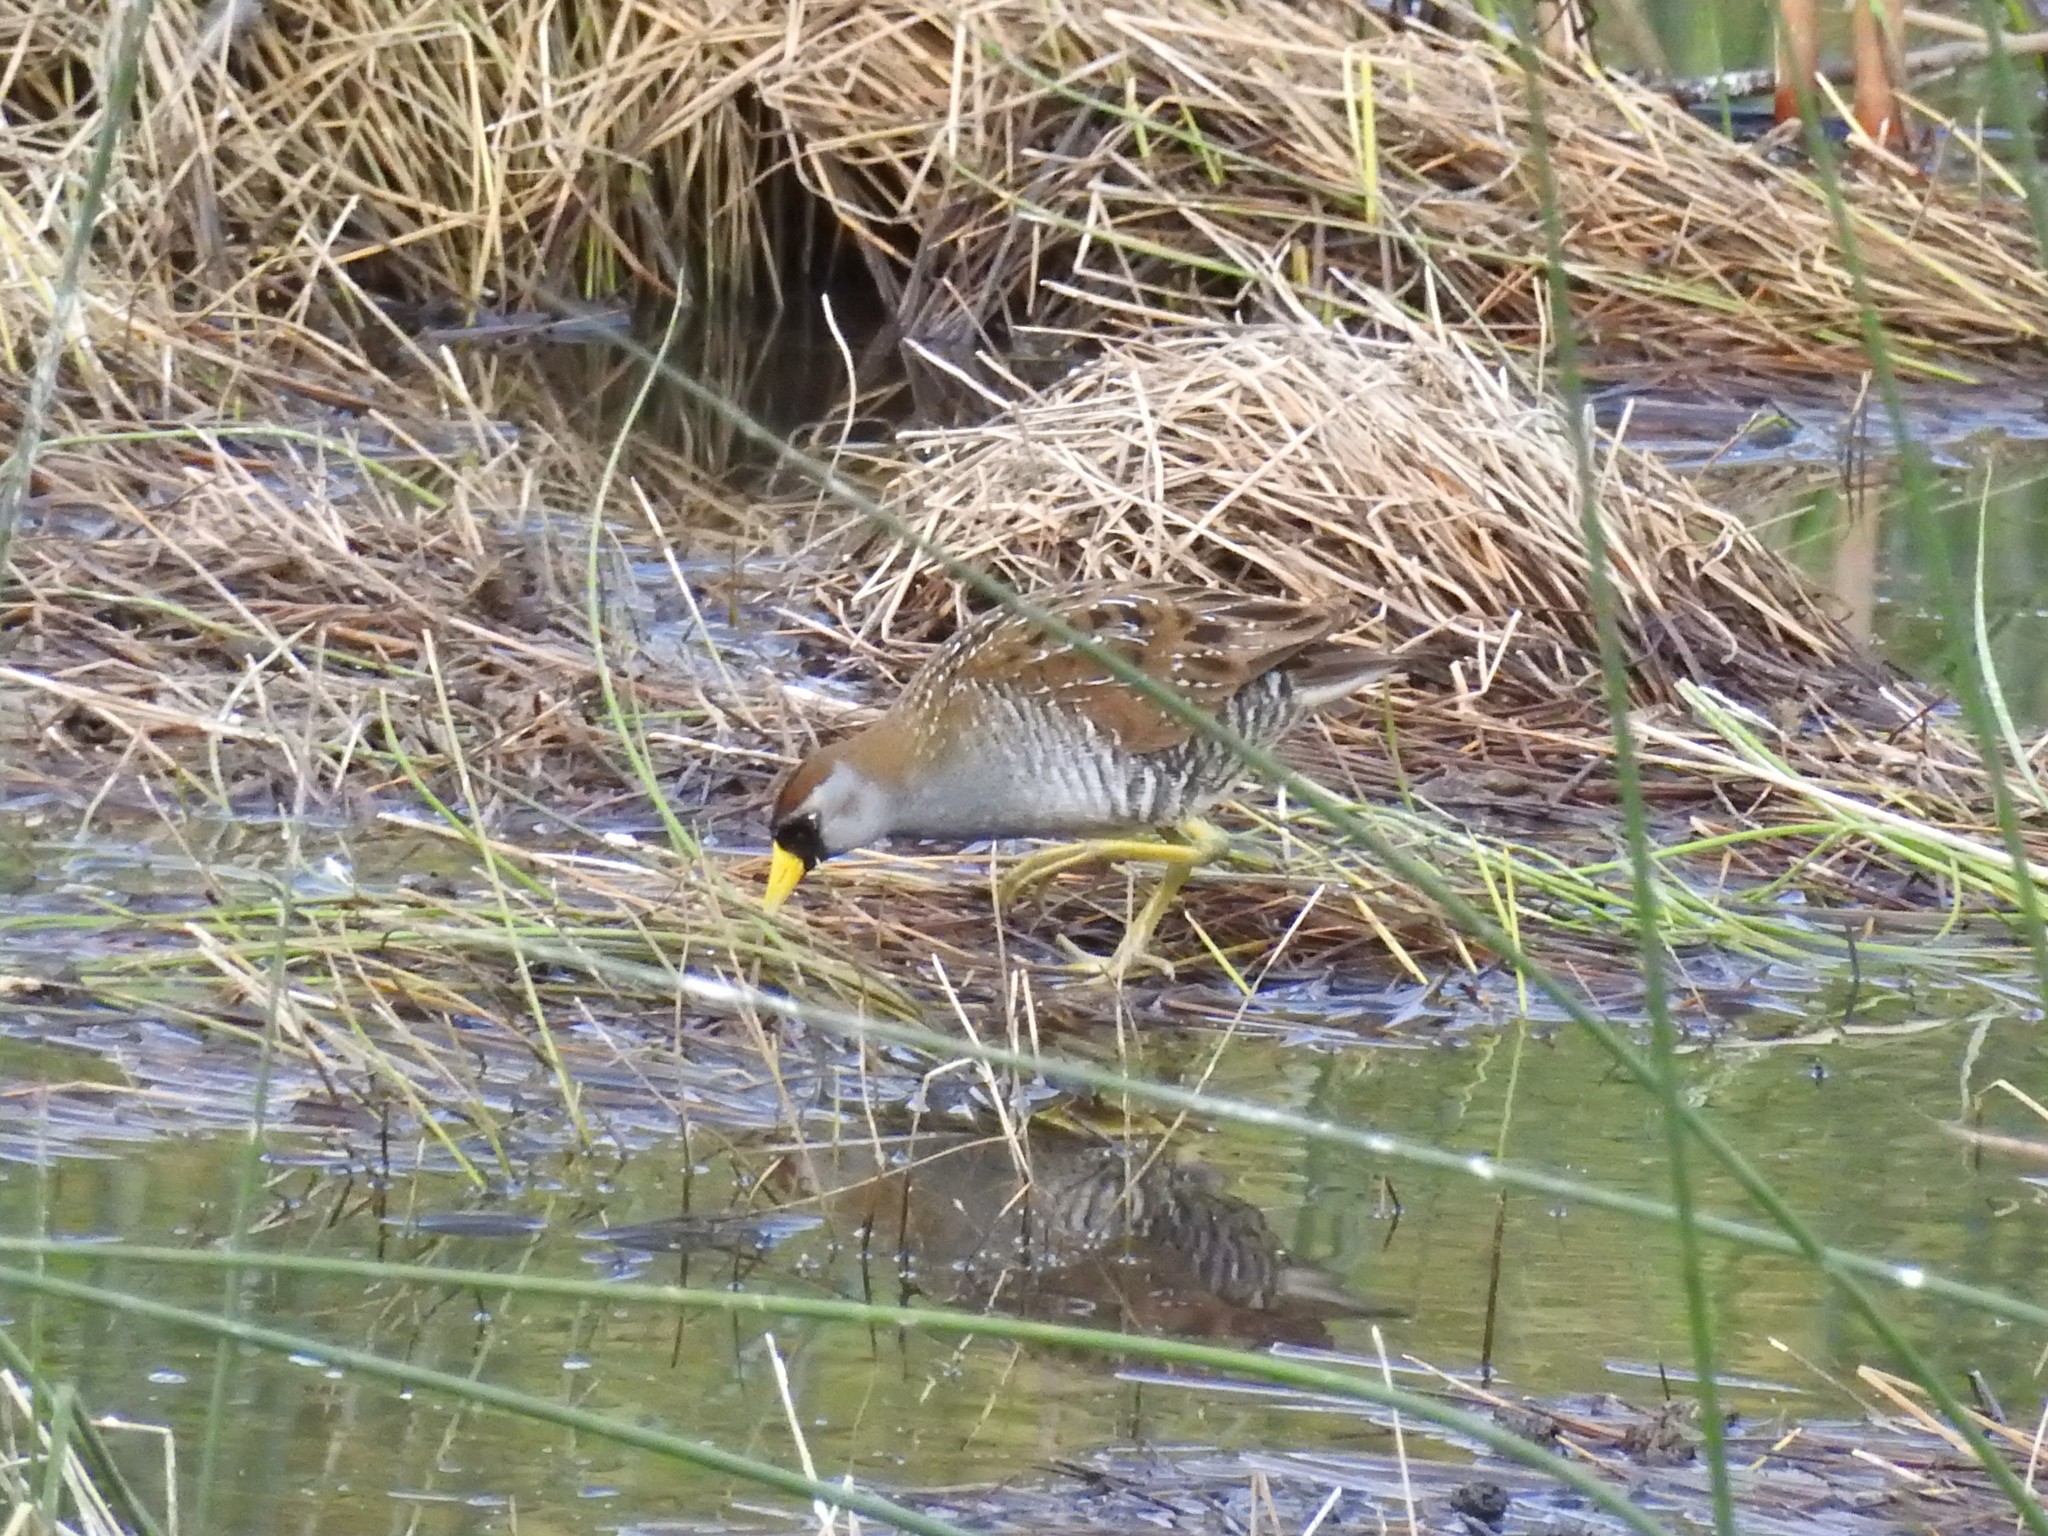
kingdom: Animalia
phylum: Chordata
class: Aves
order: Gruiformes
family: Rallidae
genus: Porzana
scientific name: Porzana carolina
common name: Sora
